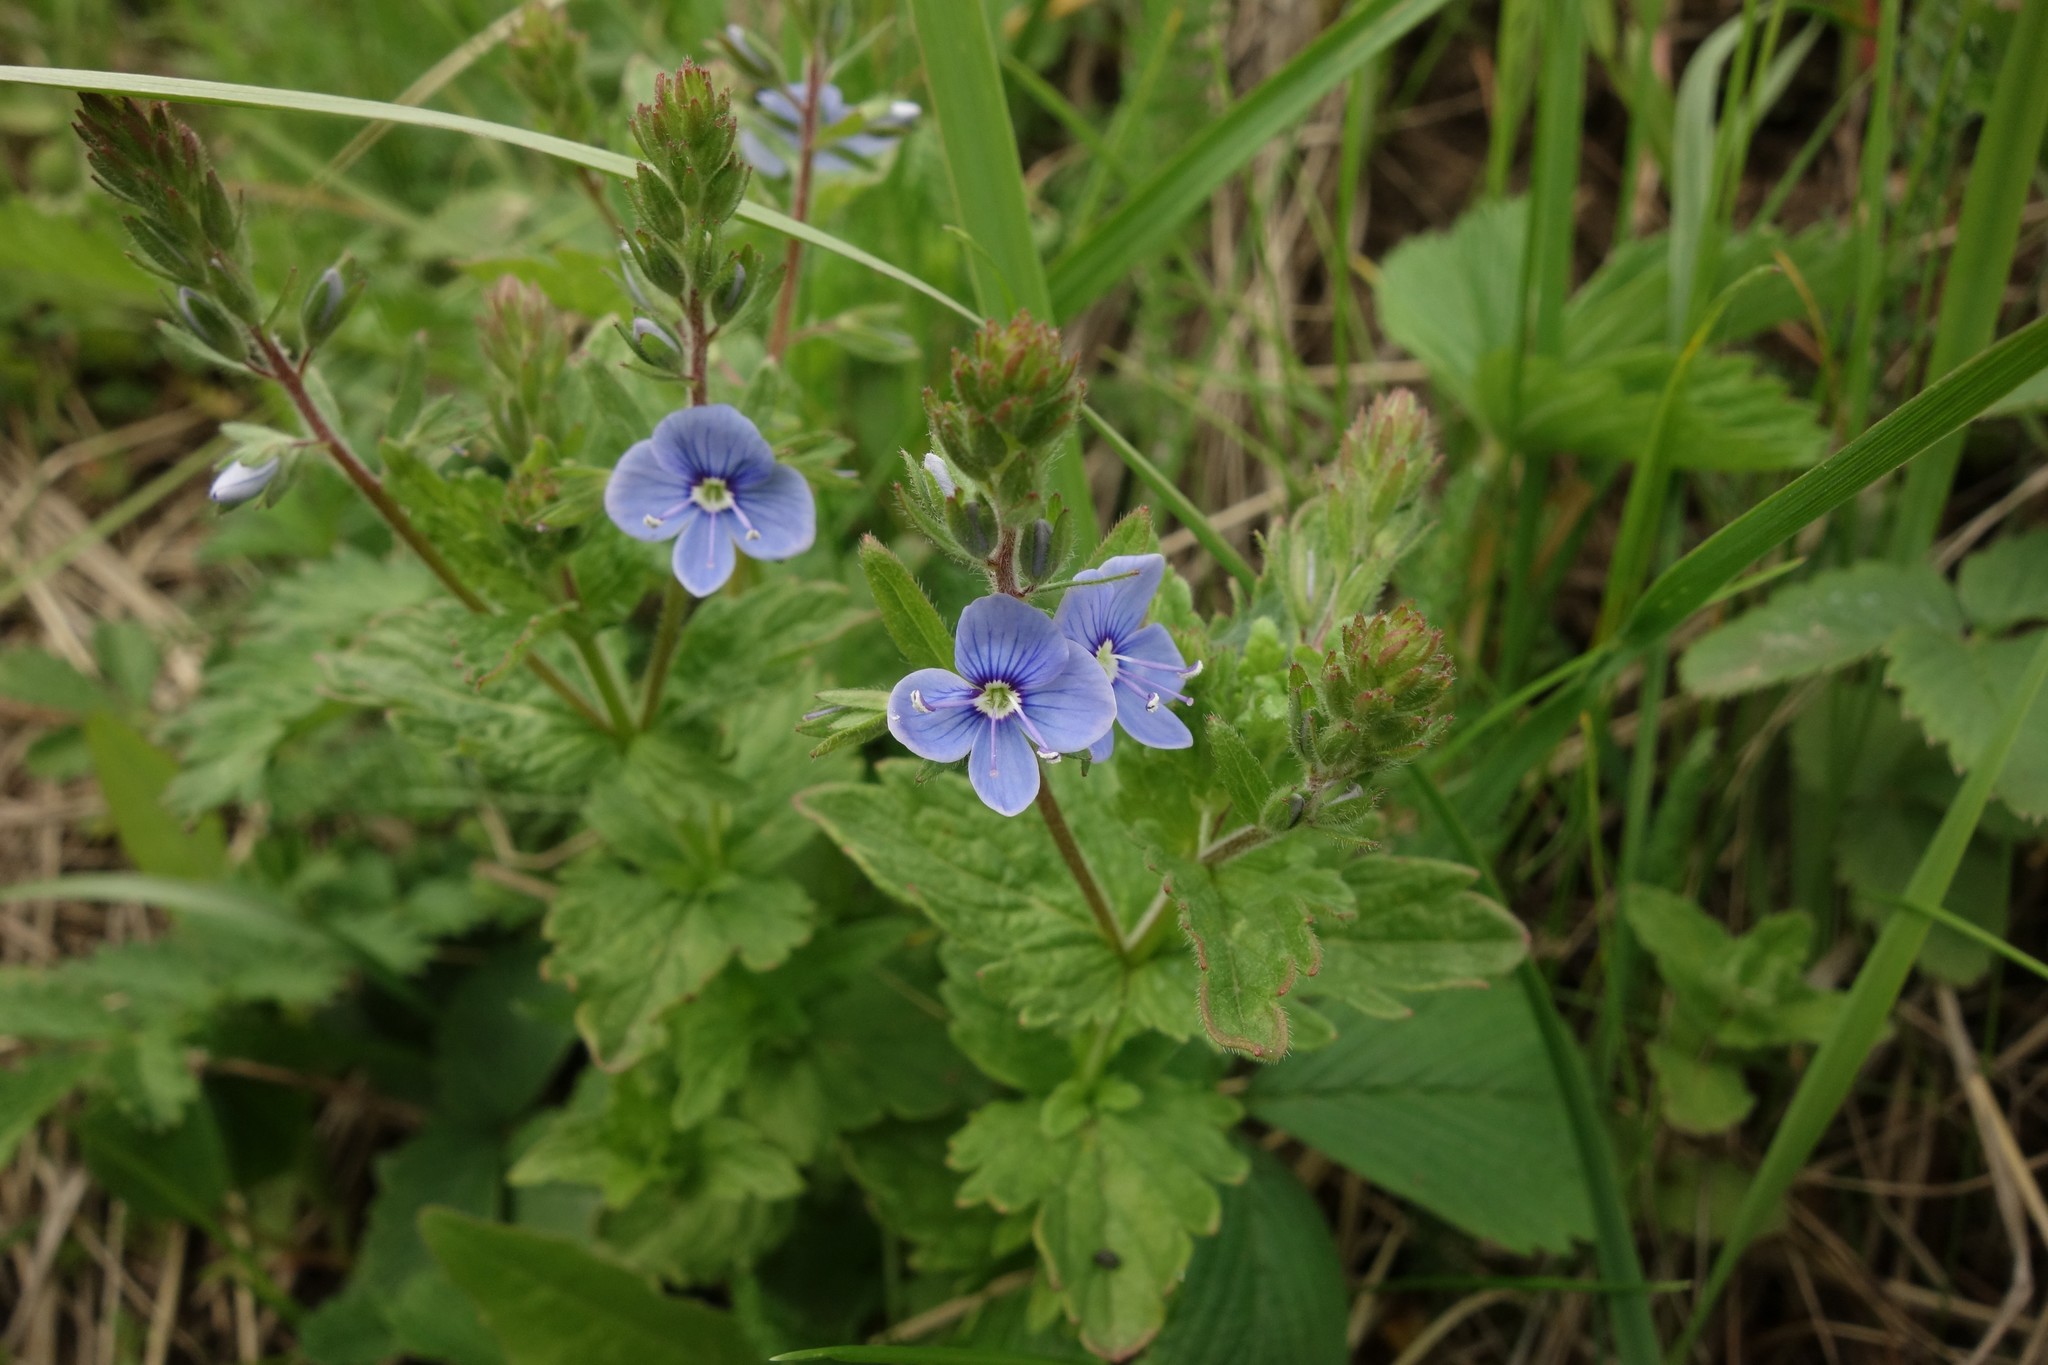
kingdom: Plantae
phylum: Tracheophyta
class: Magnoliopsida
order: Lamiales
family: Plantaginaceae
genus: Veronica
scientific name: Veronica chamaedrys
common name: Germander speedwell
